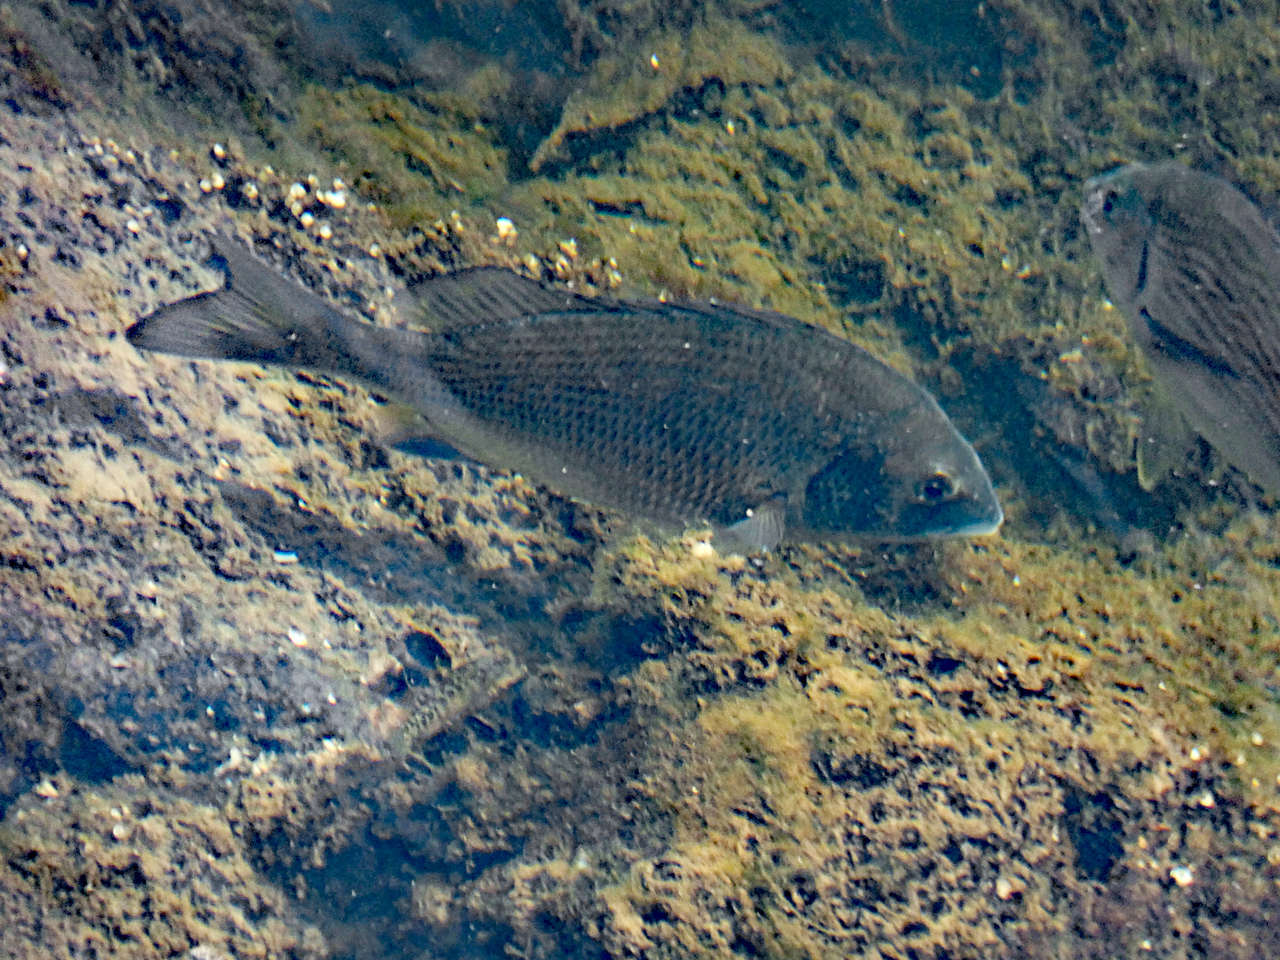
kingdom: Animalia
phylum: Chordata
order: Perciformes
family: Sparidae
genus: Acanthopagrus
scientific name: Acanthopagrus butcheri
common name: Black bream
